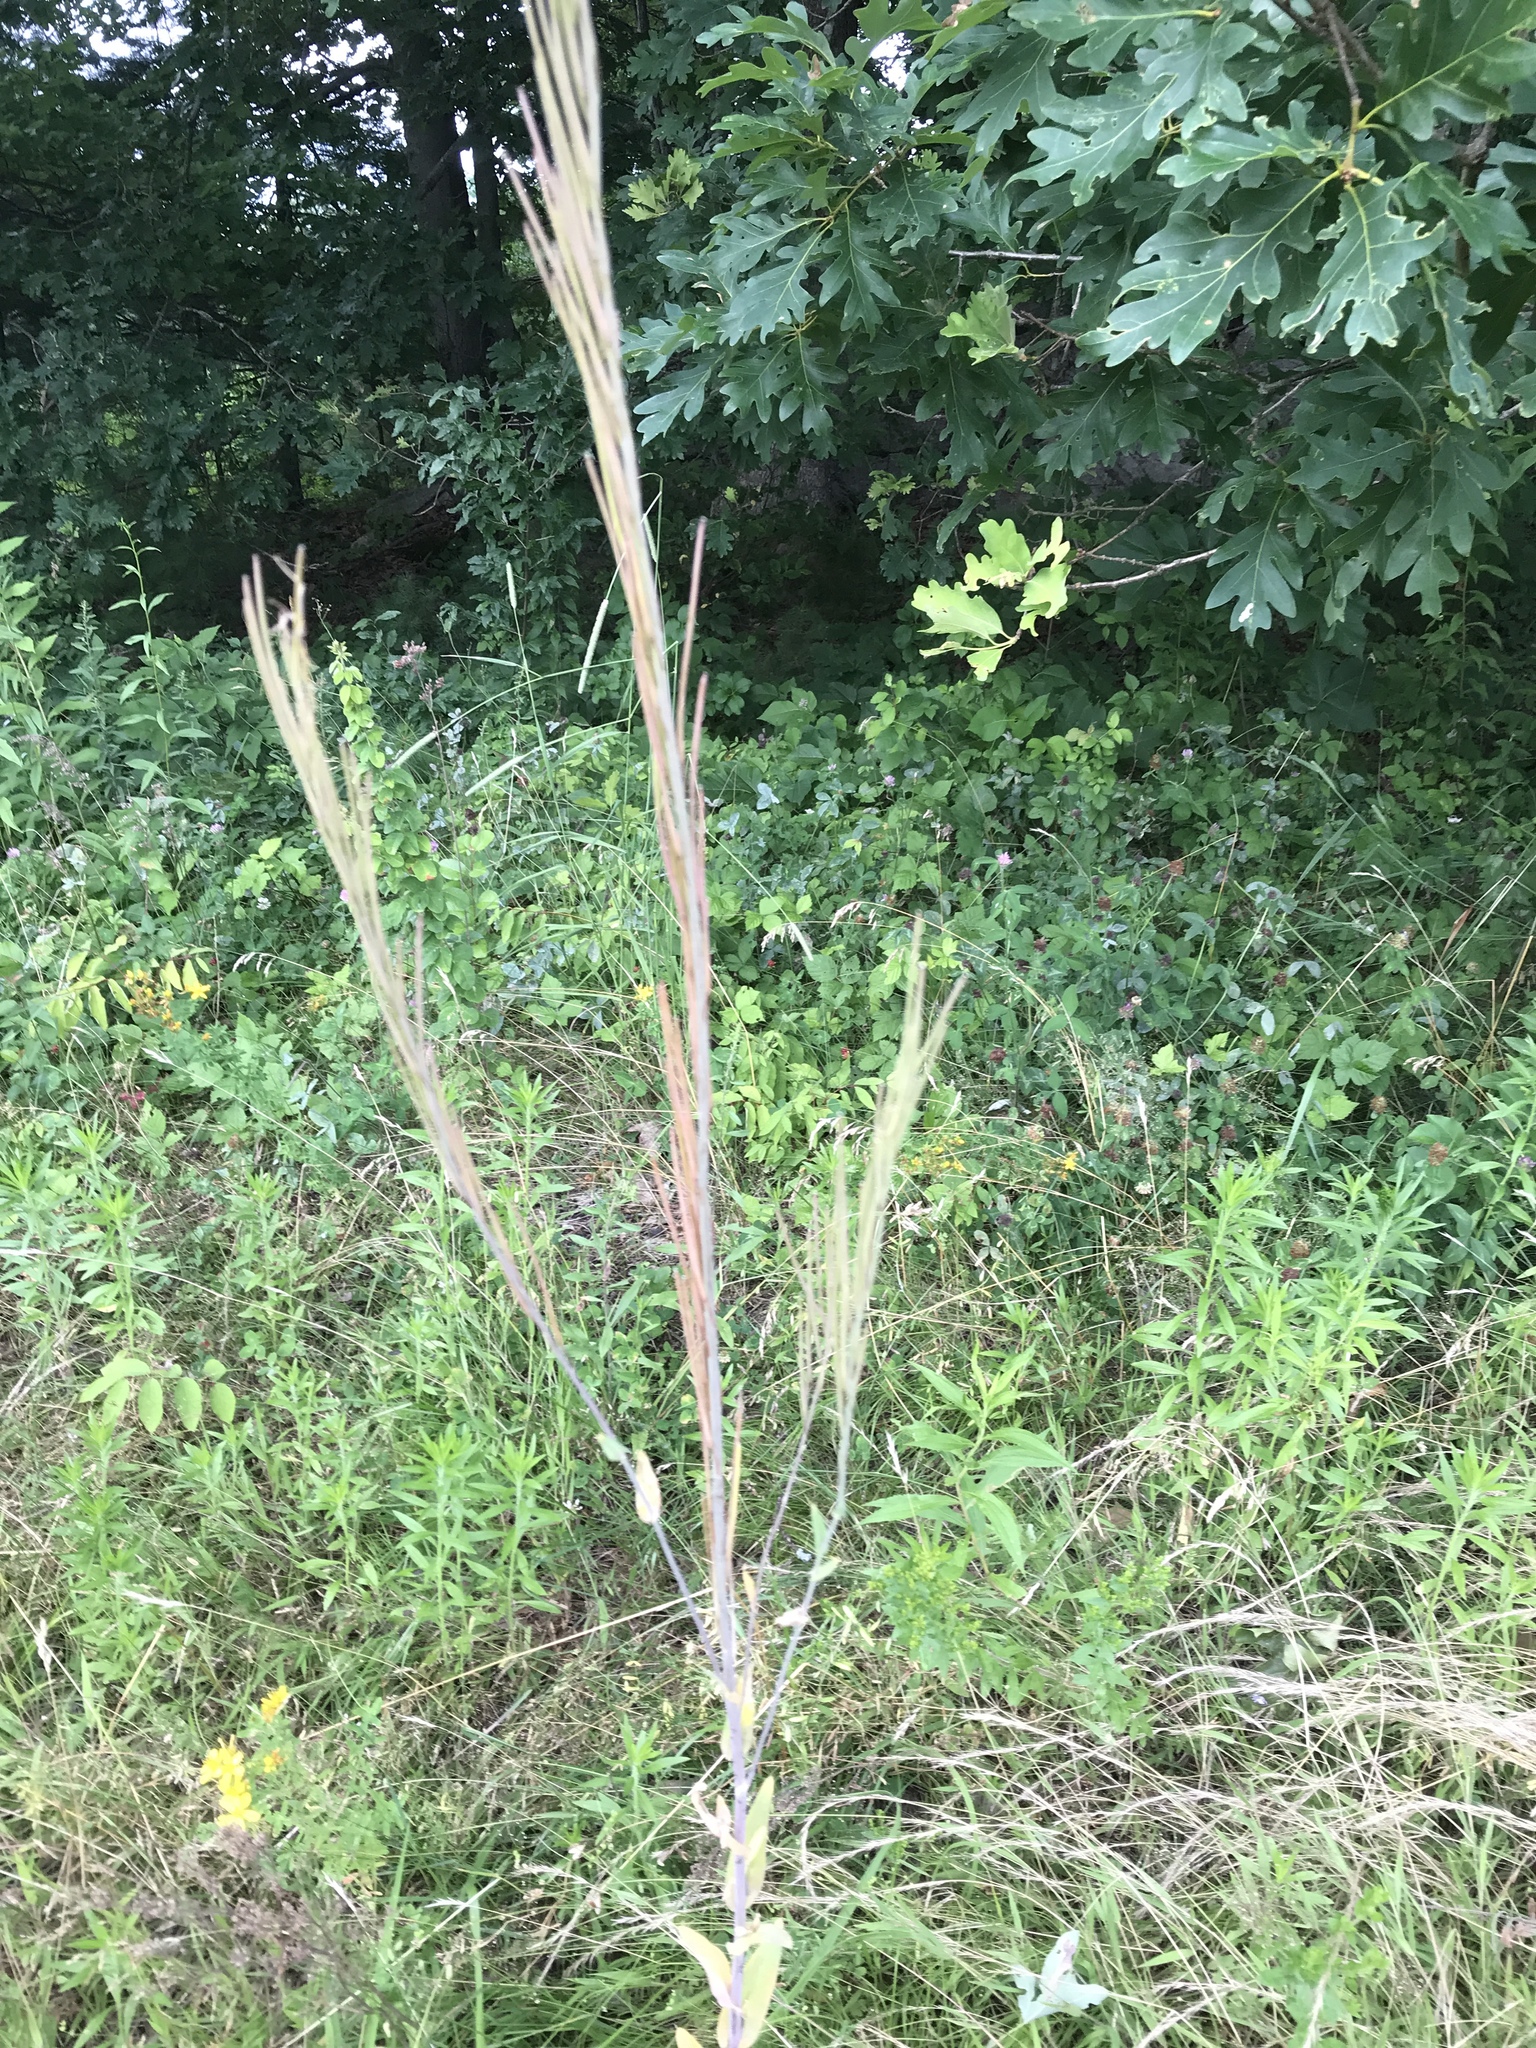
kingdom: Plantae
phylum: Tracheophyta
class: Magnoliopsida
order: Brassicales
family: Brassicaceae
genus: Turritis
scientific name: Turritis glabra
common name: Tower rockcress
